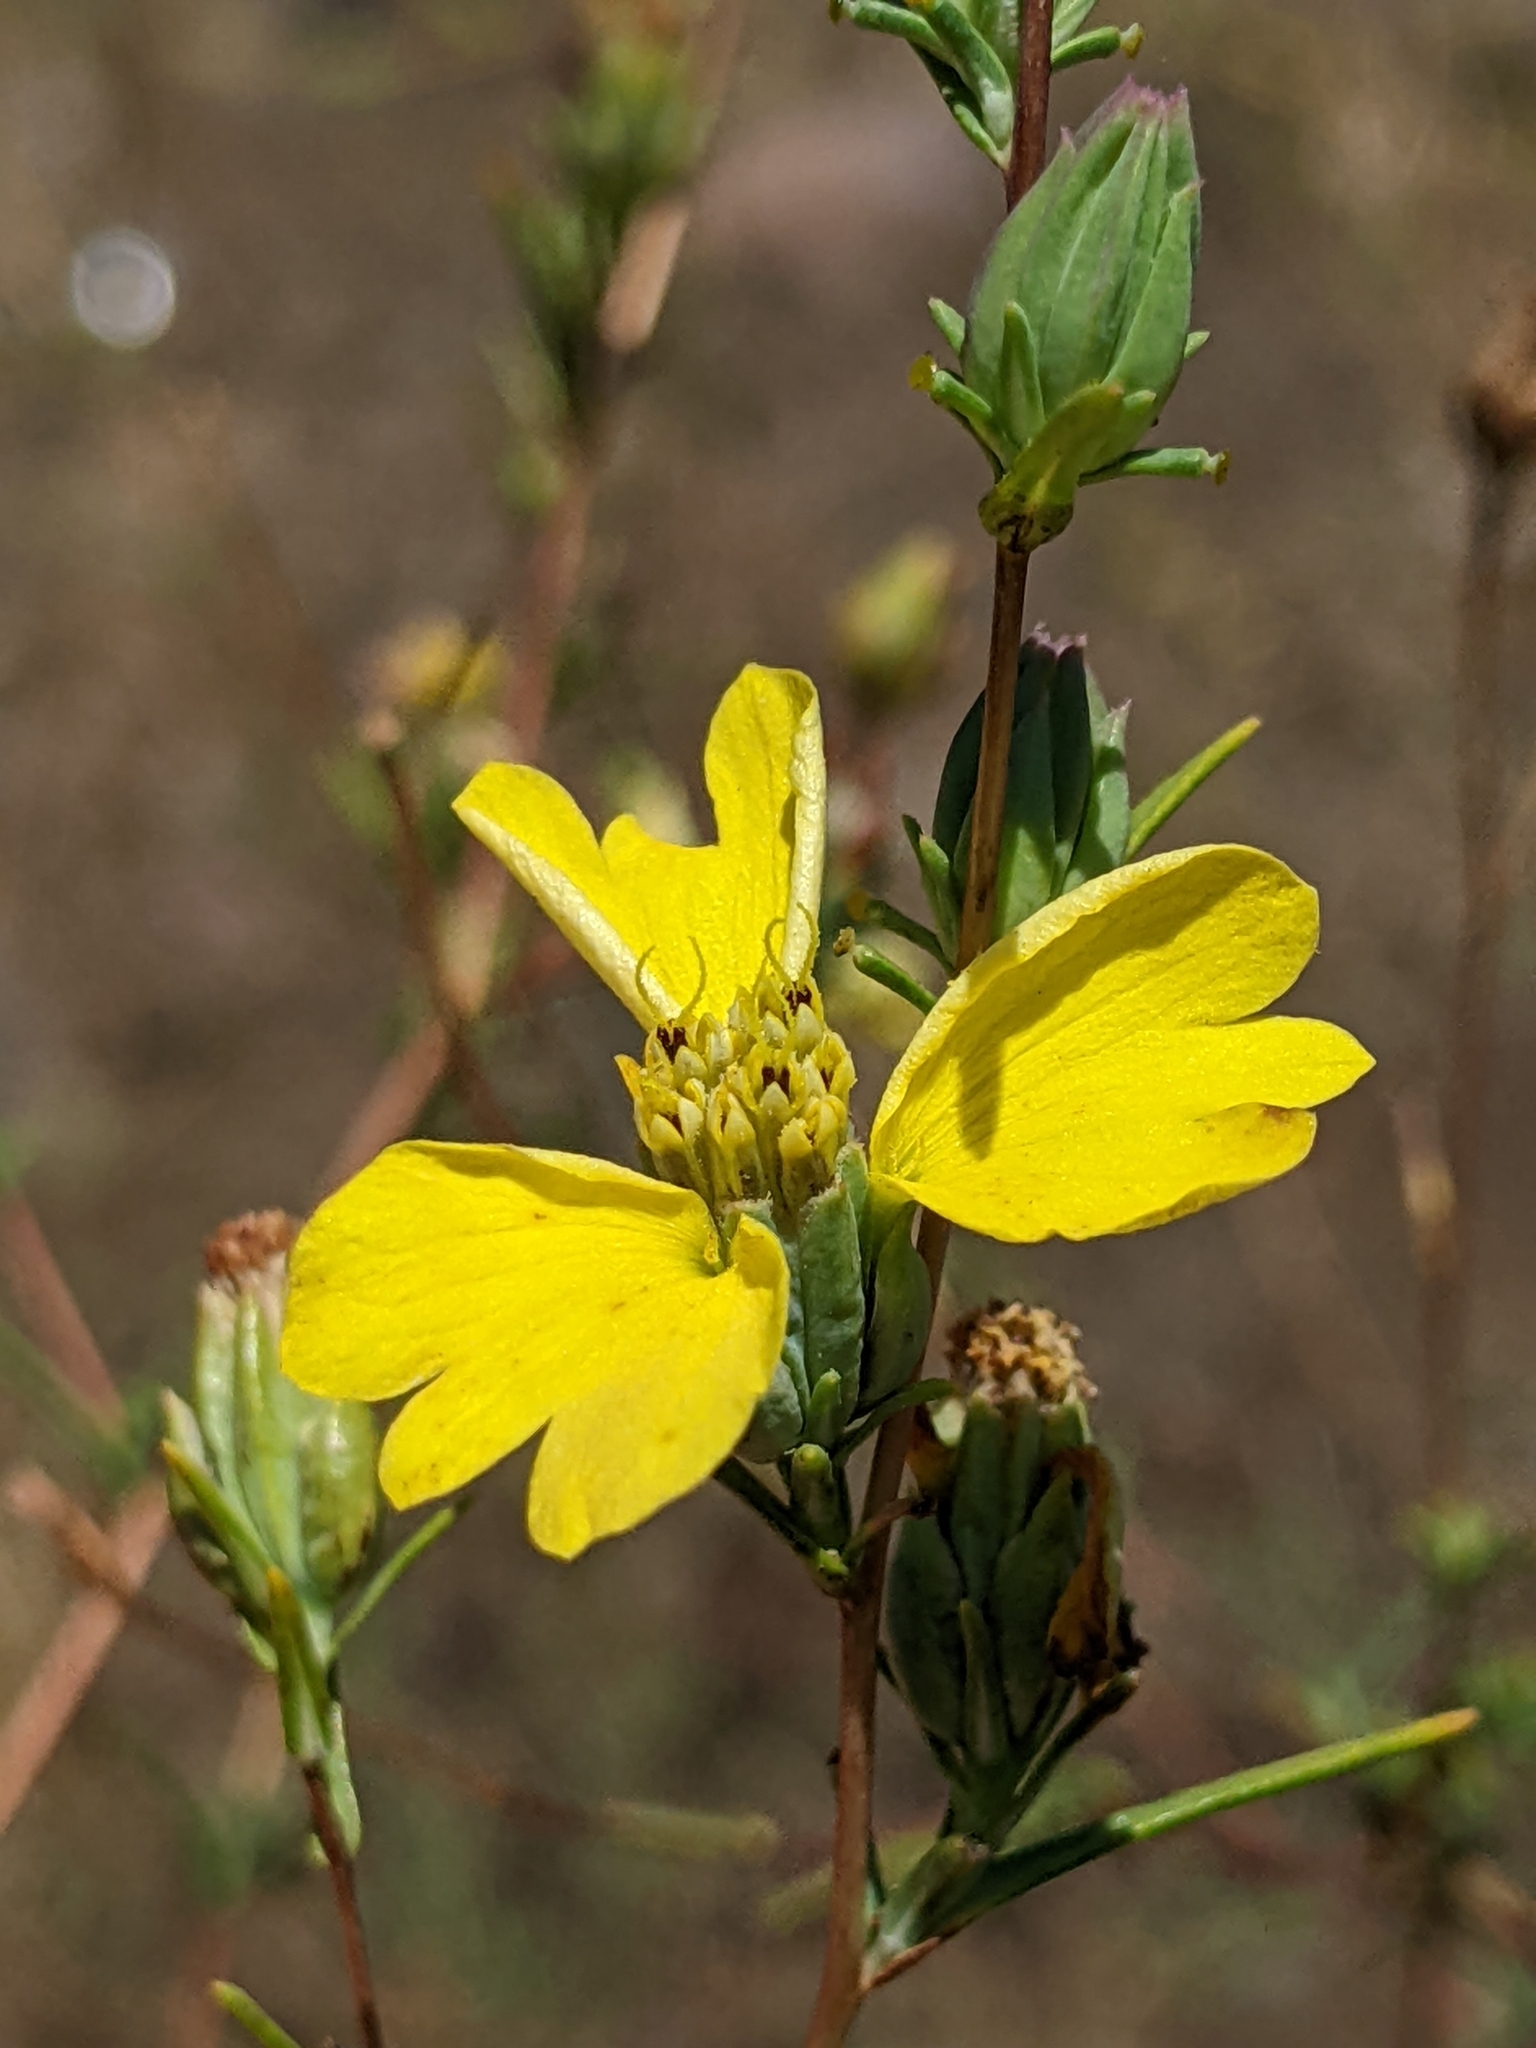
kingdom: Plantae
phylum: Tracheophyta
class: Magnoliopsida
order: Asterales
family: Asteraceae
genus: Calycadenia
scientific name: Calycadenia truncata
